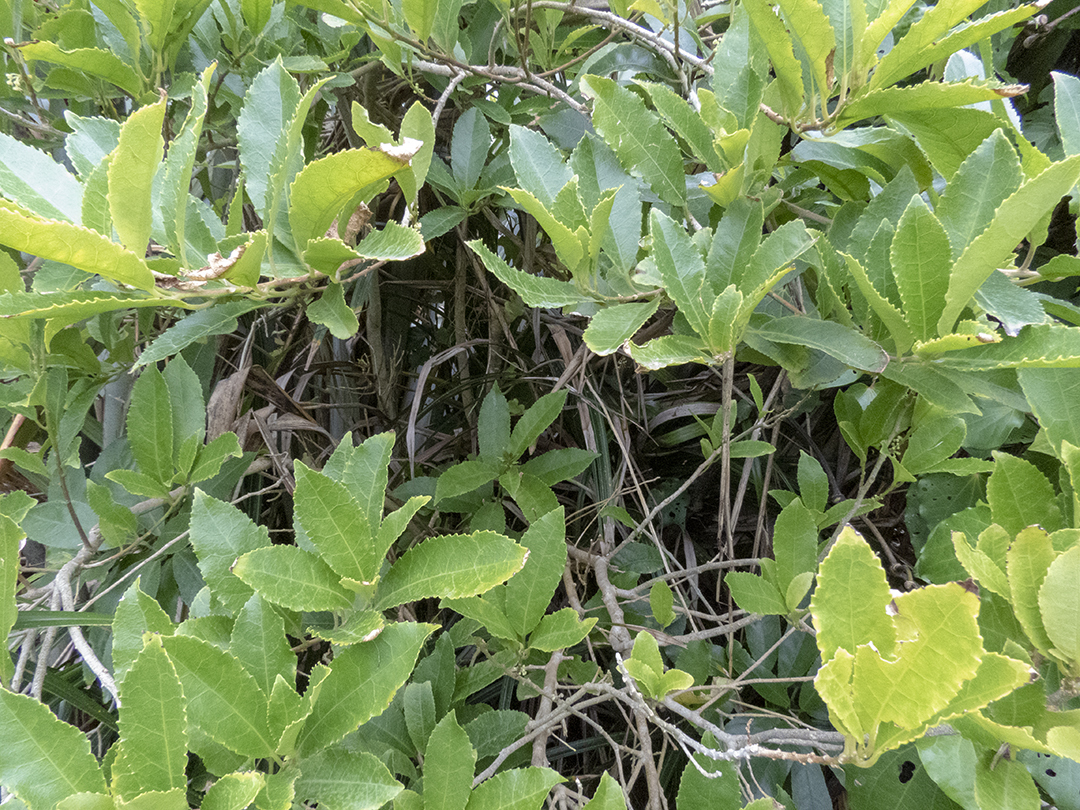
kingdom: Plantae
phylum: Tracheophyta
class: Magnoliopsida
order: Malpighiales
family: Violaceae
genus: Melicytus
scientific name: Melicytus ramiflorus
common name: Mahoe
